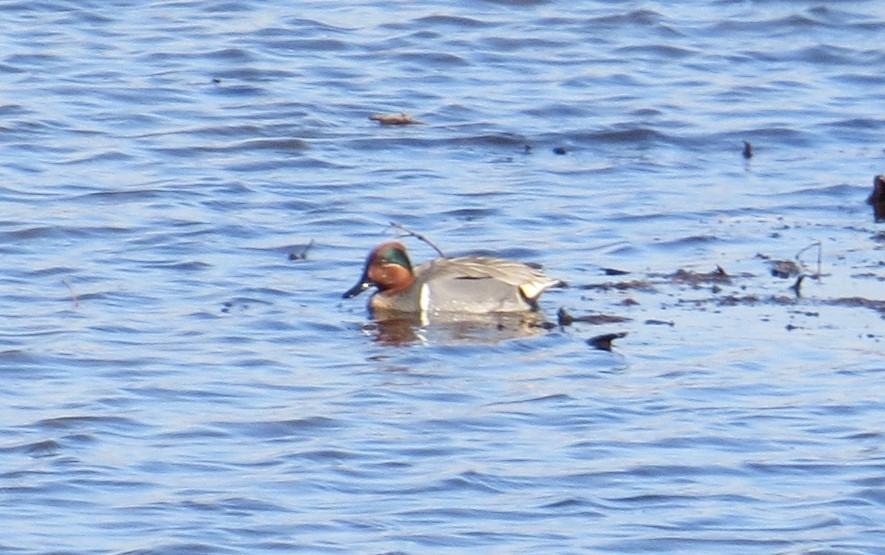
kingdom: Animalia
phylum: Chordata
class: Aves
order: Anseriformes
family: Anatidae
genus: Anas
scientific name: Anas crecca
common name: Eurasian teal
